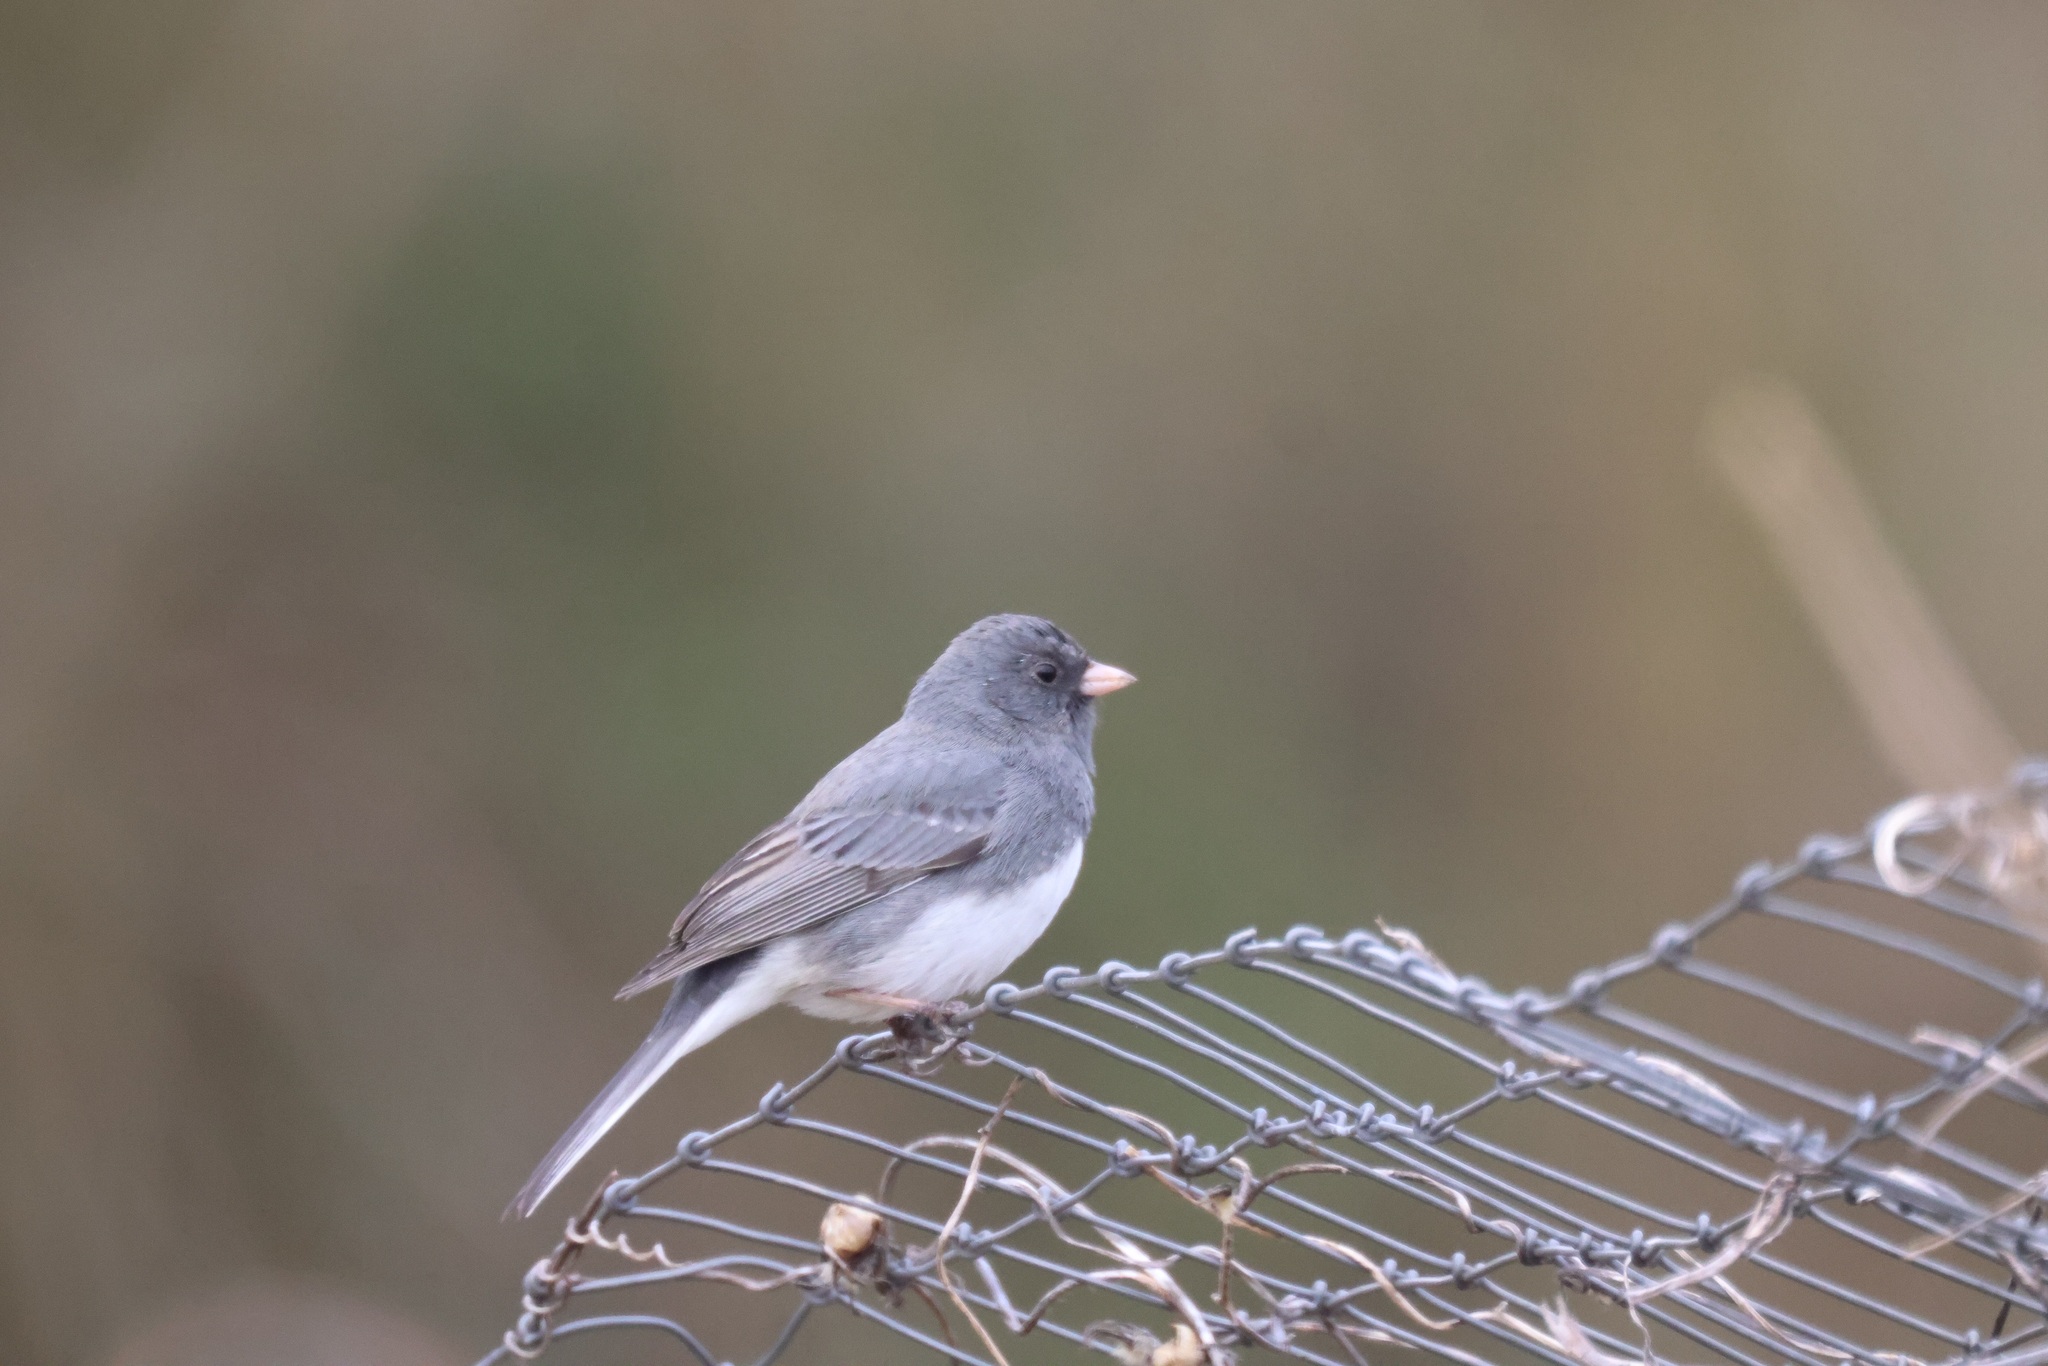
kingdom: Animalia
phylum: Chordata
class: Aves
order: Passeriformes
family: Passerellidae
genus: Junco
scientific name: Junco hyemalis
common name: Dark-eyed junco
